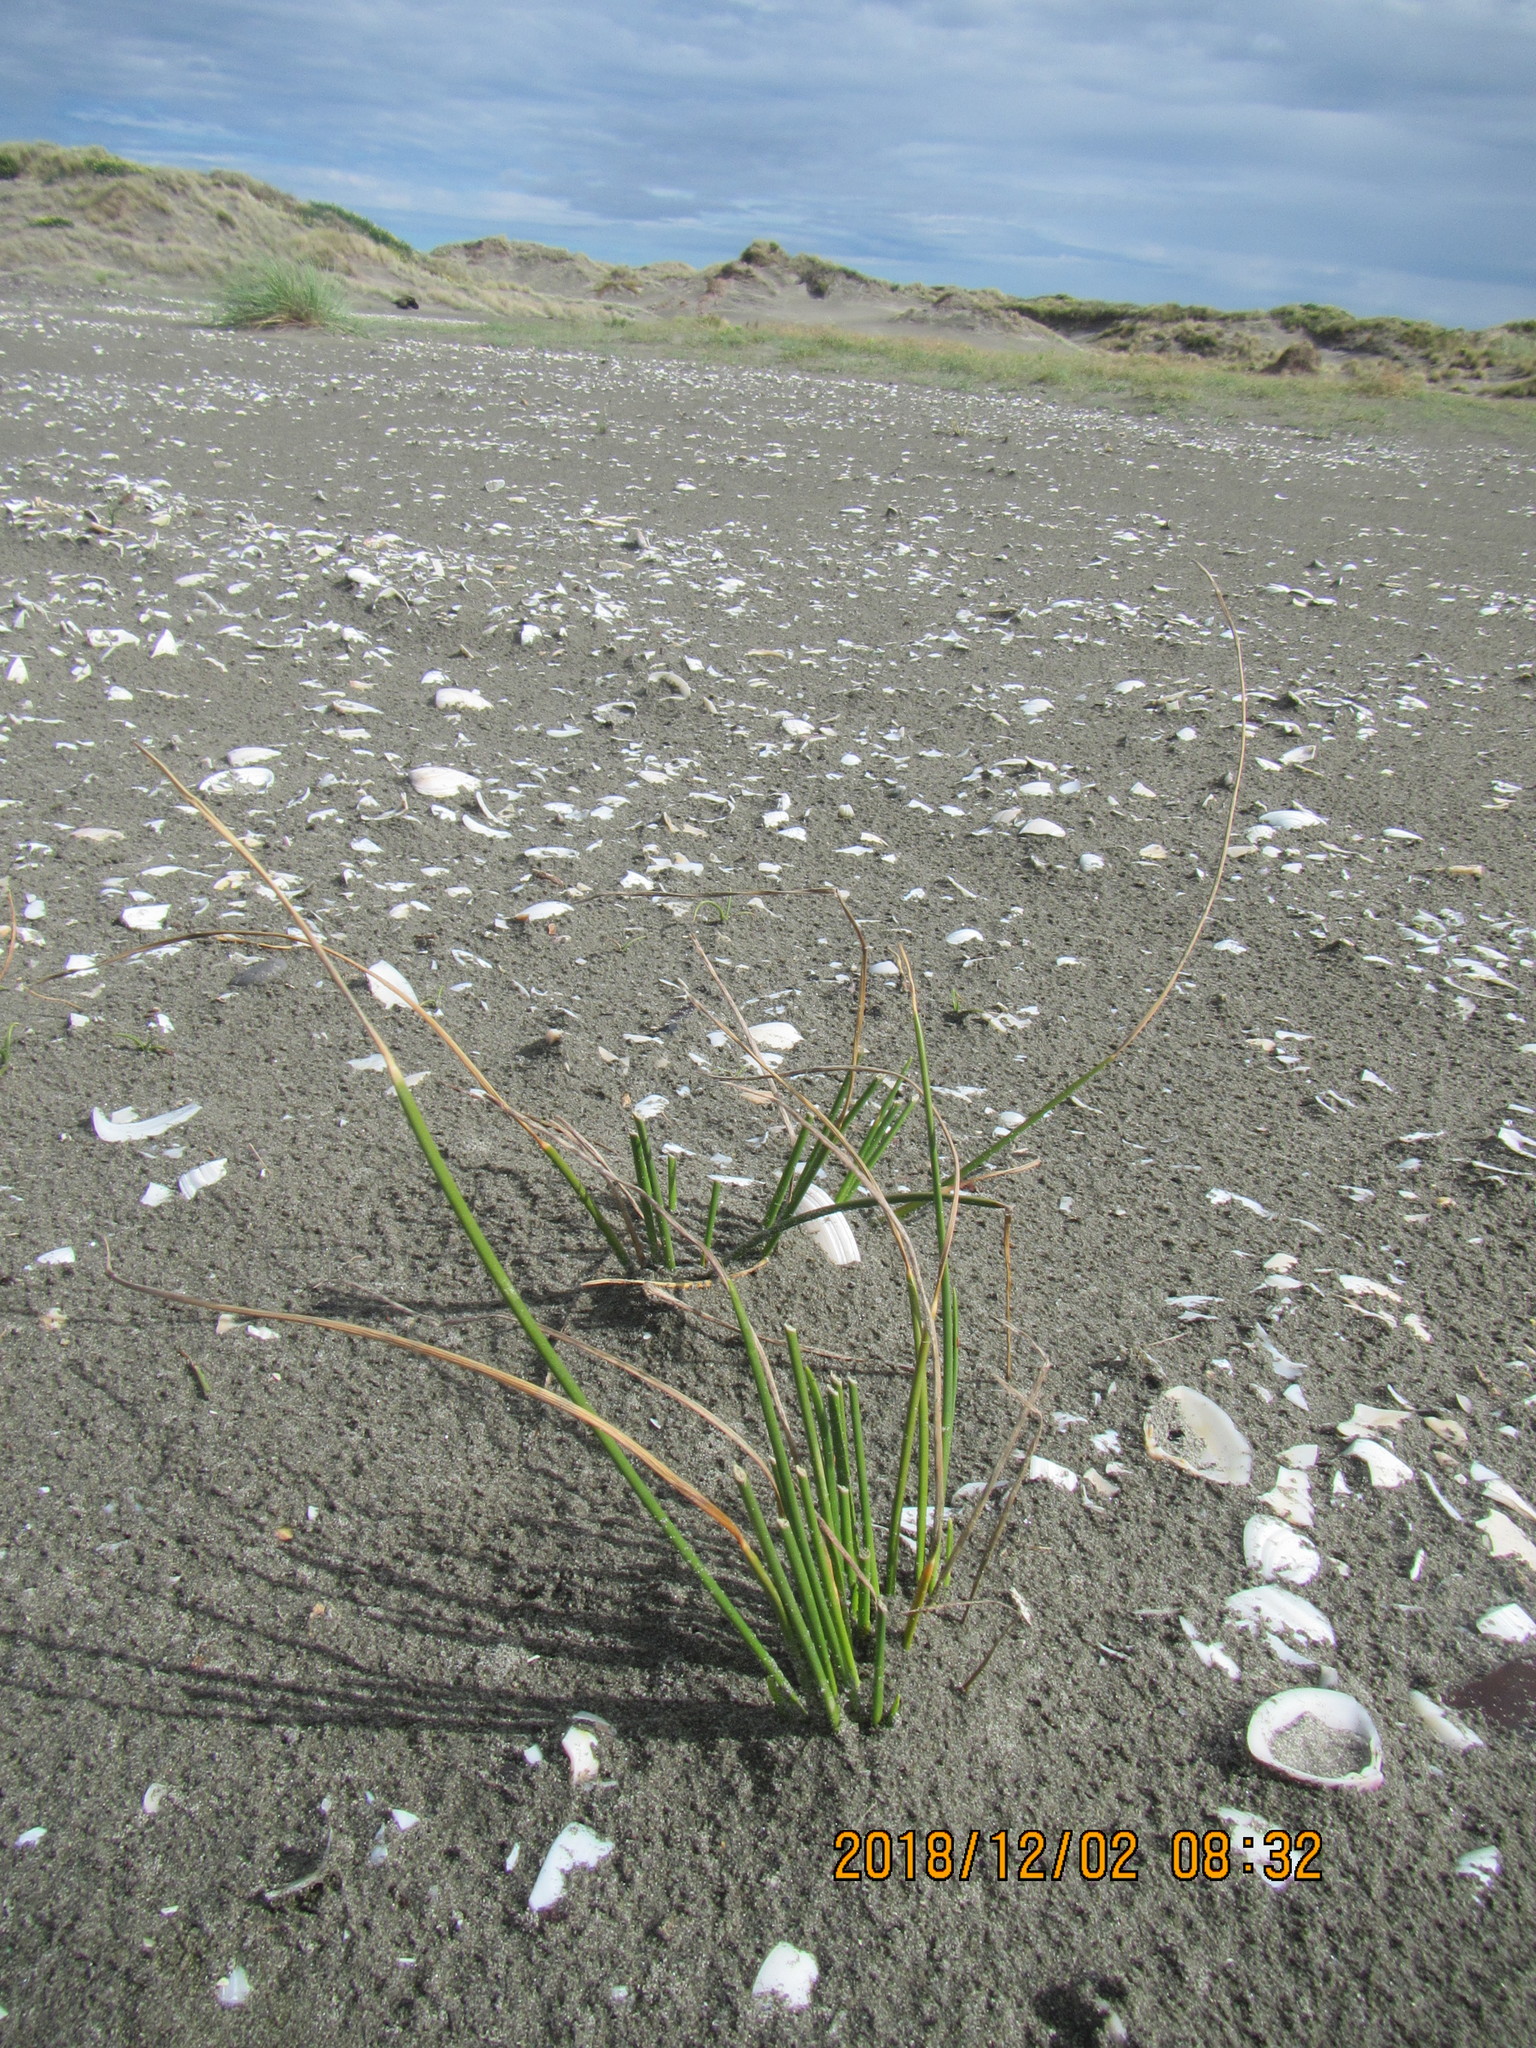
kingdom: Plantae
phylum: Tracheophyta
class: Liliopsida
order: Poales
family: Cyperaceae
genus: Ficinia
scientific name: Ficinia nodosa
